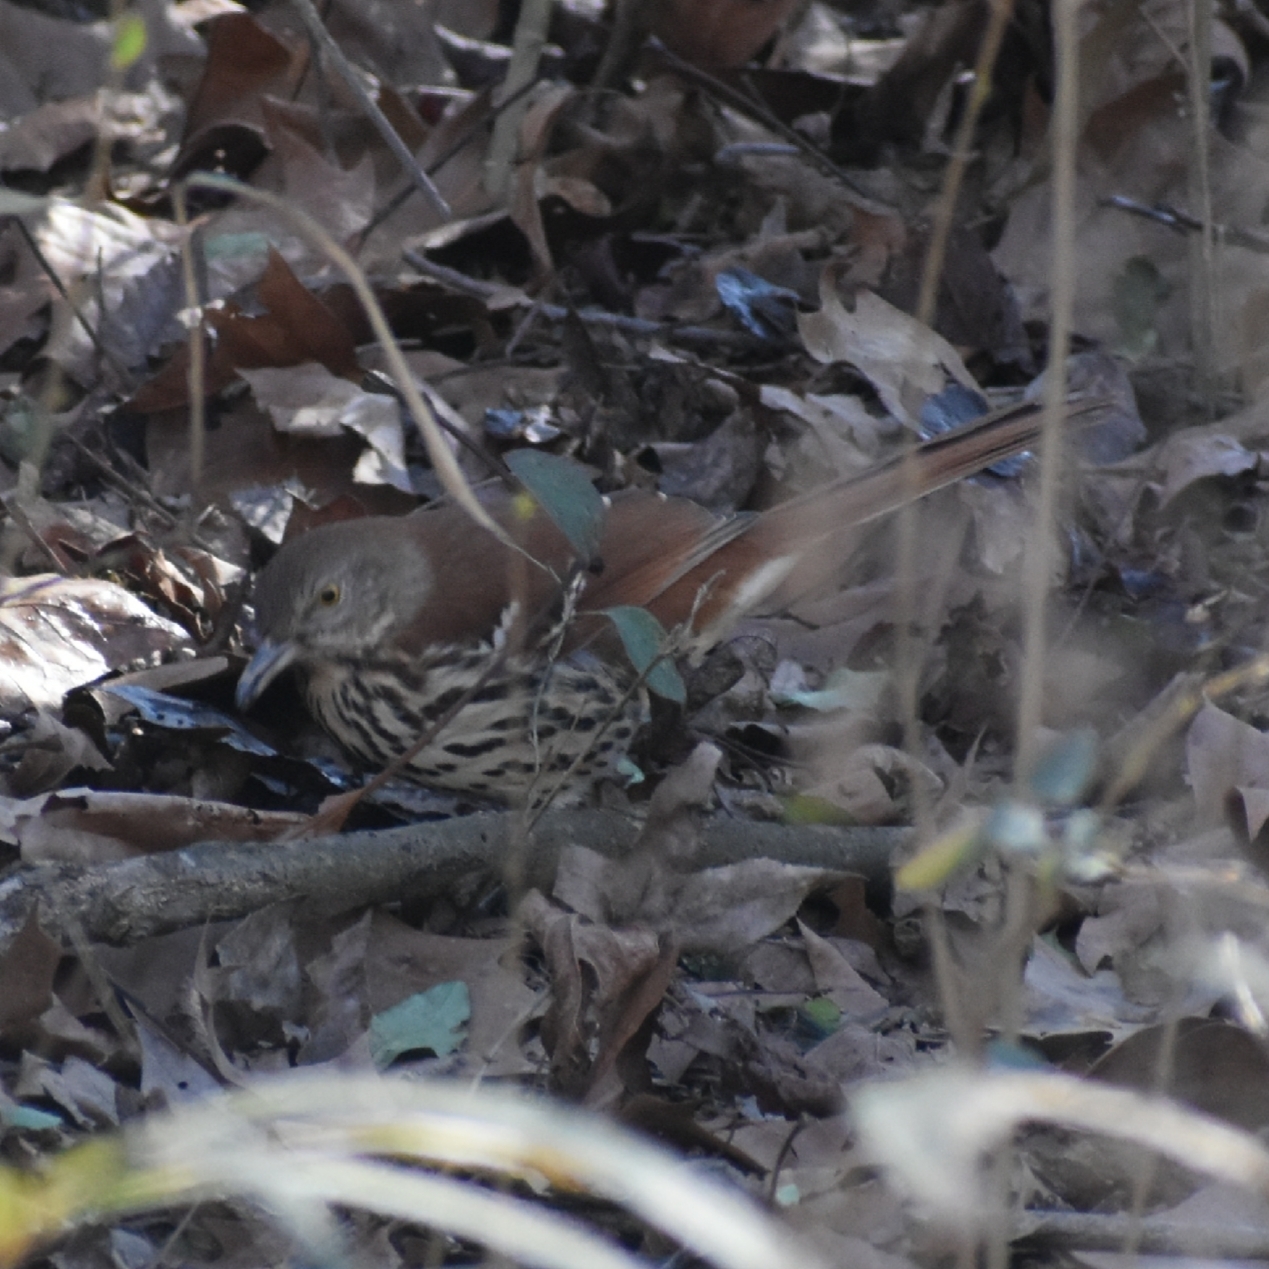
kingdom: Animalia
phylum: Chordata
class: Aves
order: Passeriformes
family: Mimidae
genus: Toxostoma
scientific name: Toxostoma rufum
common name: Brown thrasher
